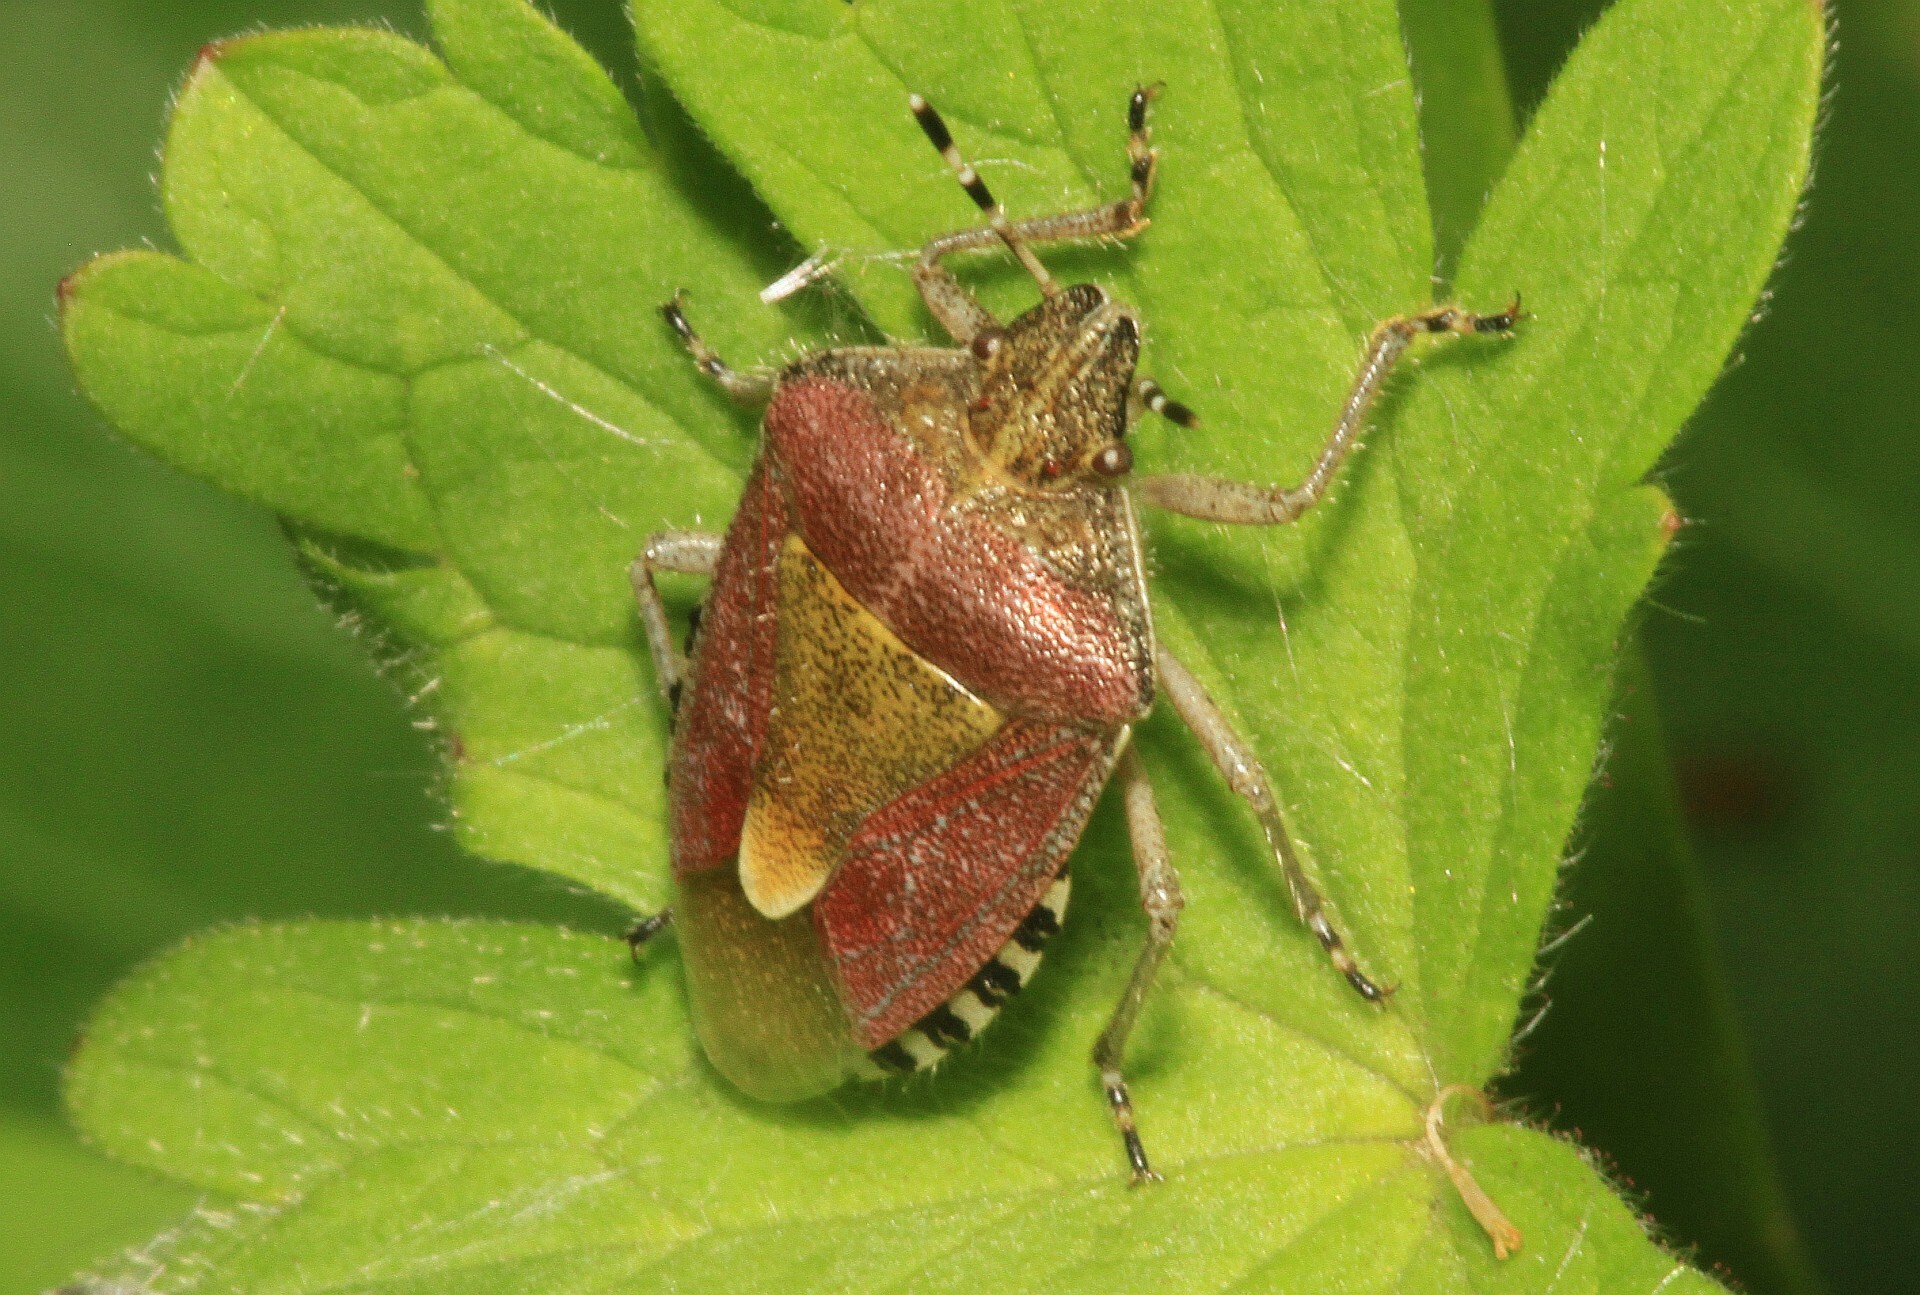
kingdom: Animalia
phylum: Arthropoda
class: Insecta
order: Hemiptera
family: Pentatomidae
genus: Dolycoris
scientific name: Dolycoris baccarum
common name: Sloe bug
